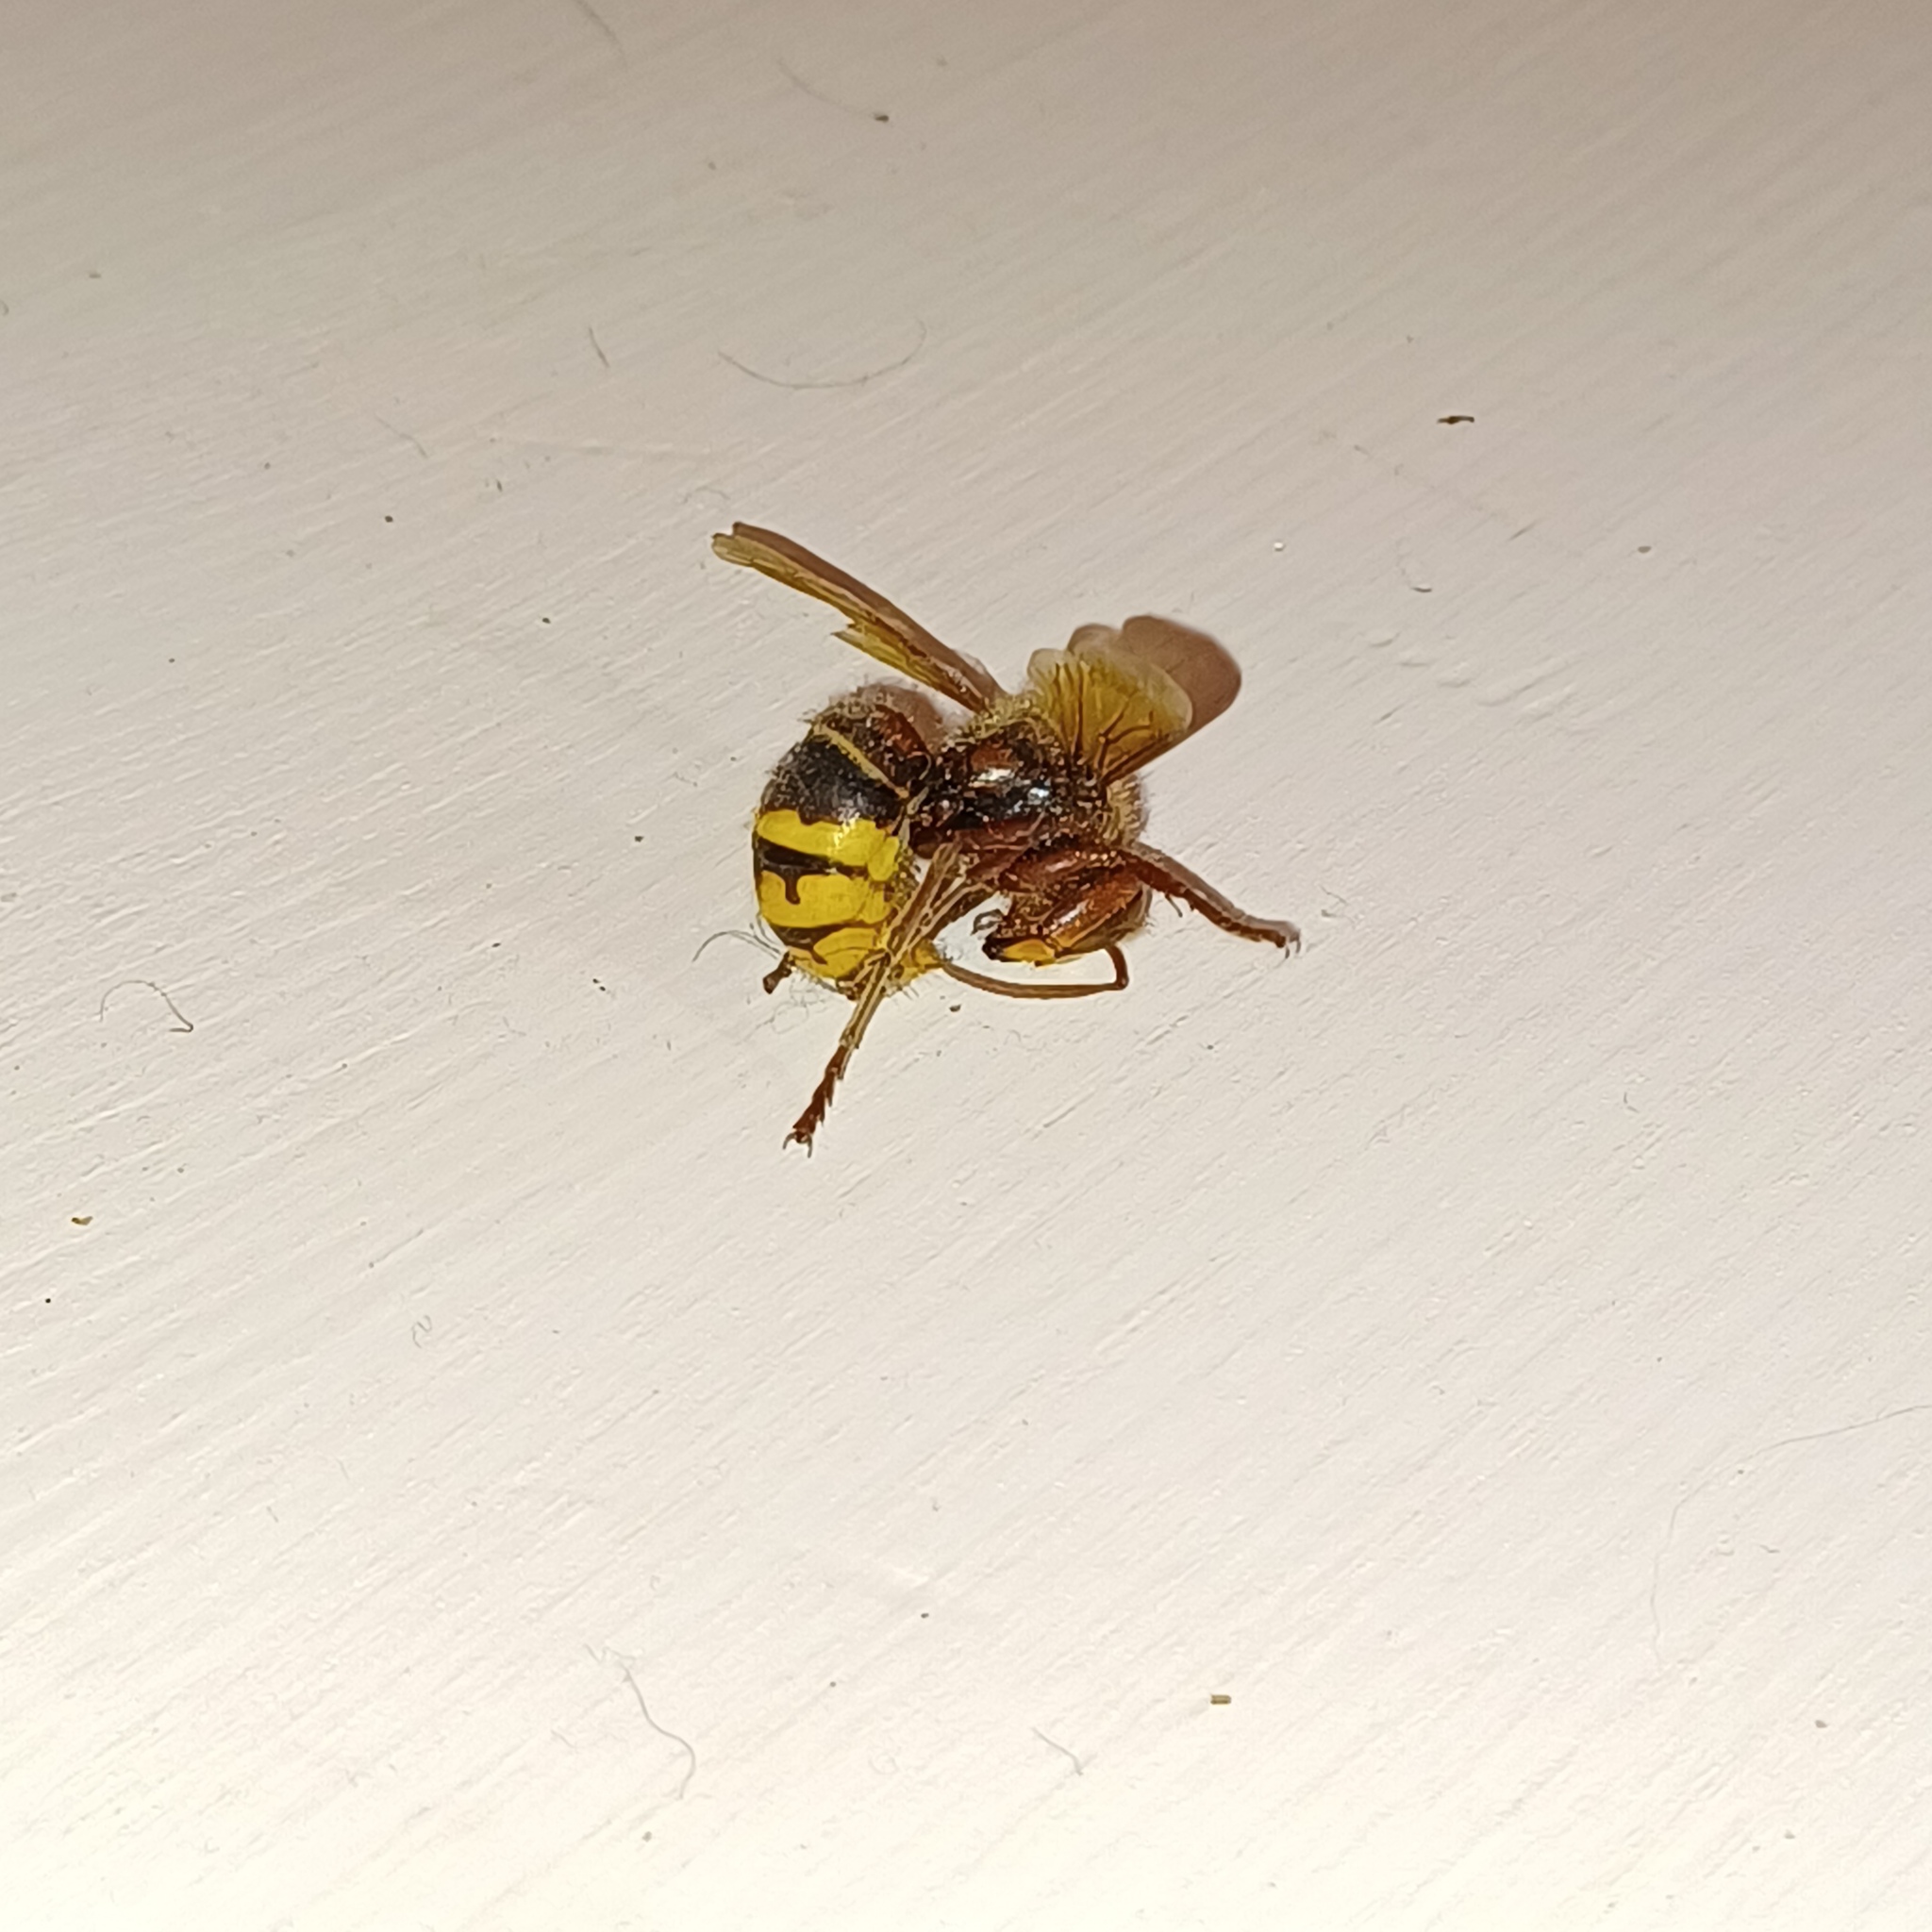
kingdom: Animalia
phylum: Arthropoda
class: Insecta
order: Hymenoptera
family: Vespidae
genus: Vespa
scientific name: Vespa crabro
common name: Hornet
